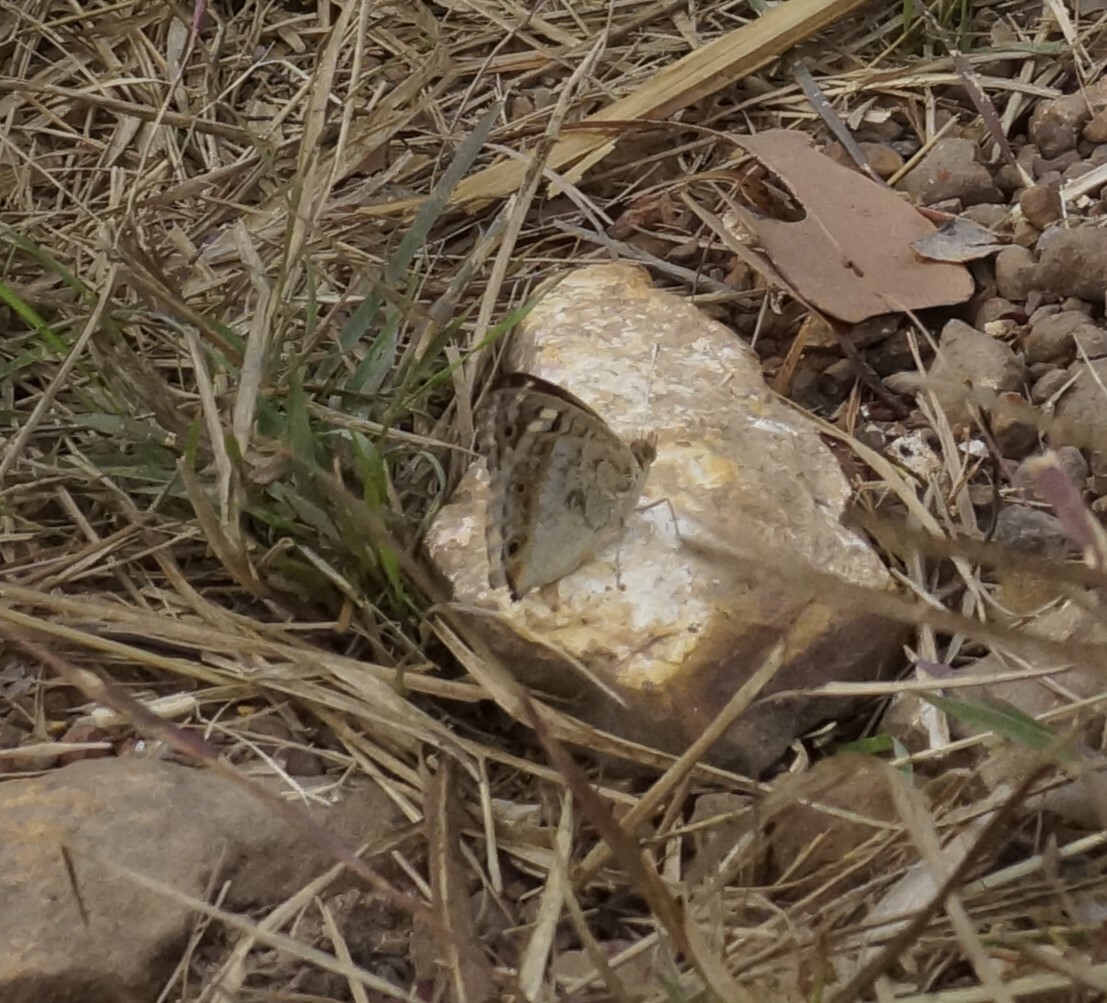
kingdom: Animalia
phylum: Arthropoda
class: Insecta
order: Lepidoptera
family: Nymphalidae
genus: Junonia
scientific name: Junonia orithya
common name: Blue pansy
